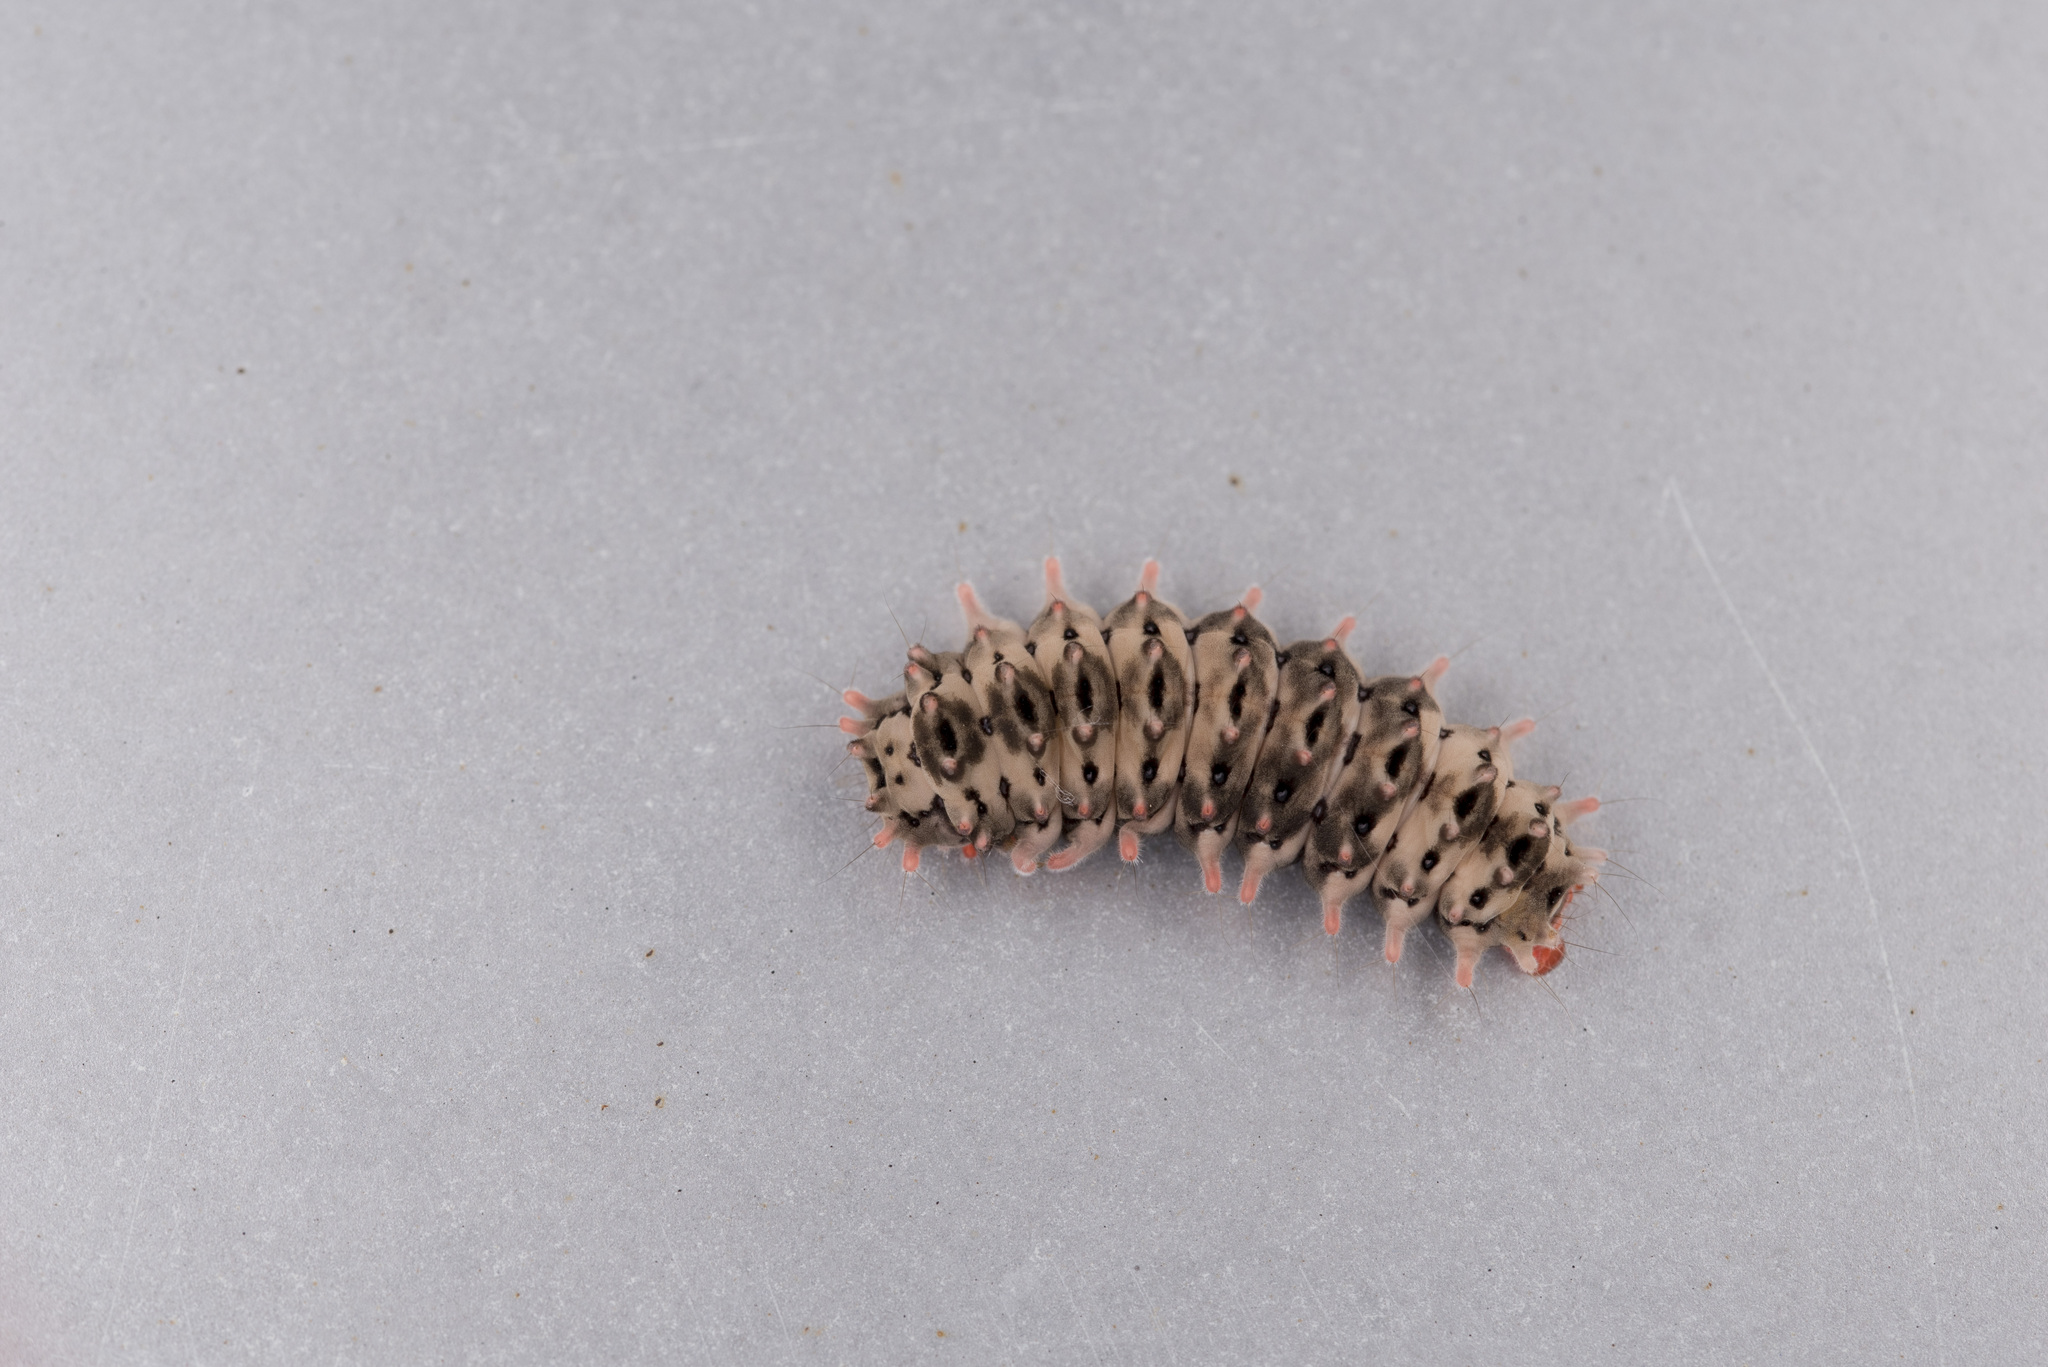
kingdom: Animalia
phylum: Arthropoda
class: Insecta
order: Lepidoptera
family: Zygaenidae
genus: Histia
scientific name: Histia flabellicornis
